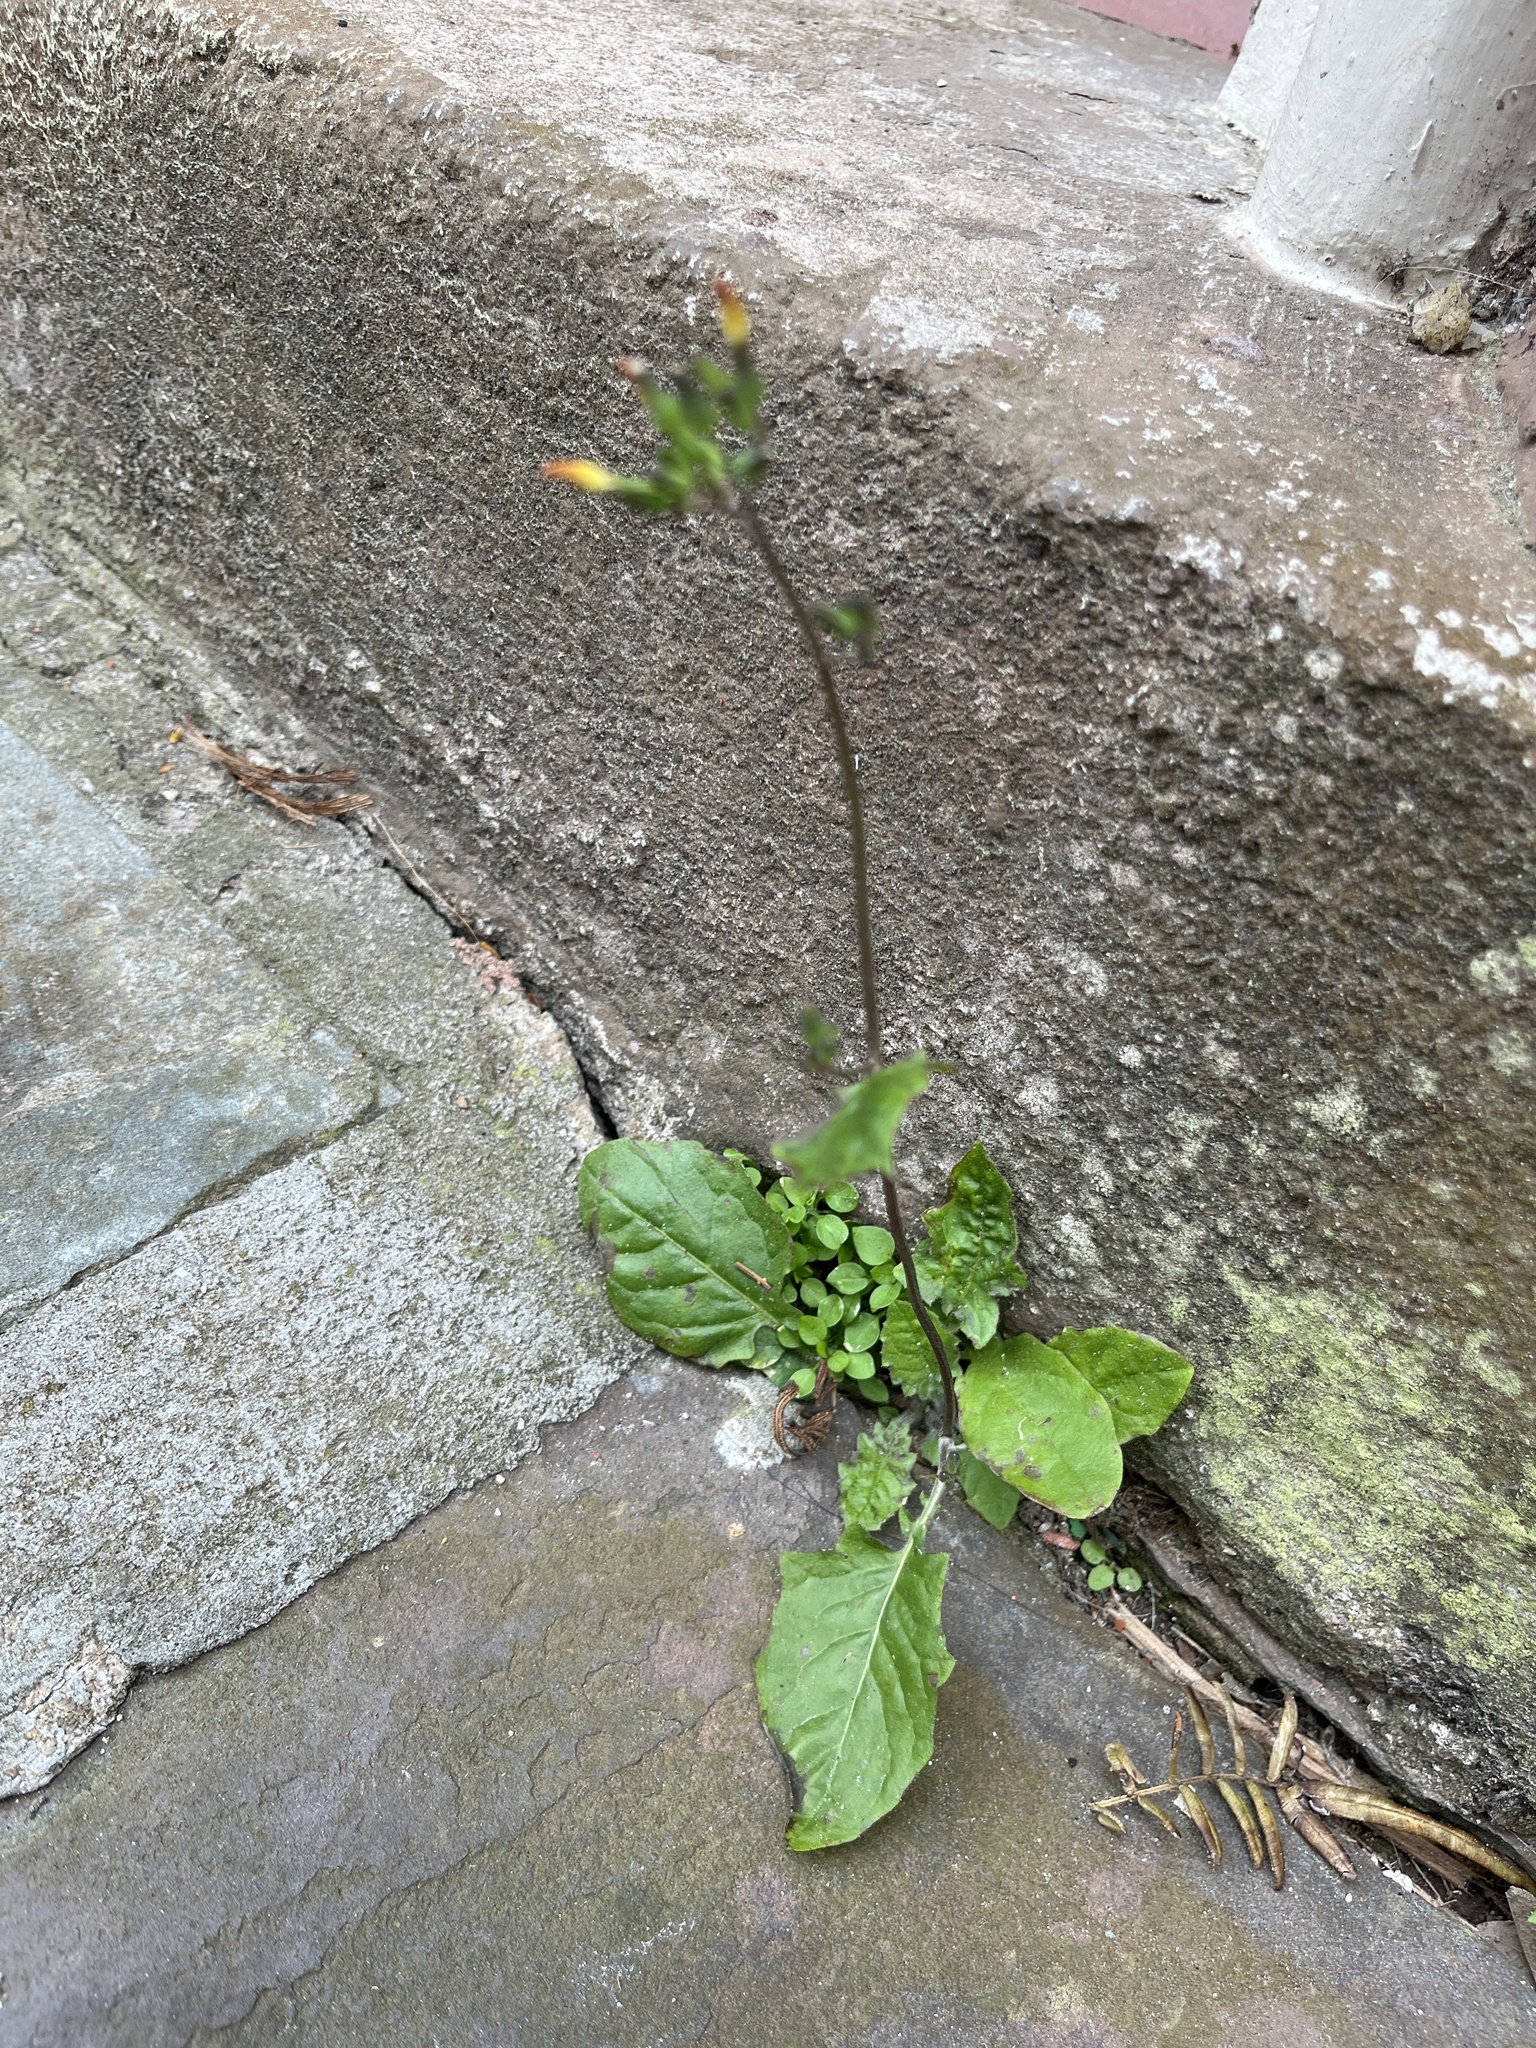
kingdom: Plantae
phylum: Tracheophyta
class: Magnoliopsida
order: Asterales
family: Asteraceae
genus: Youngia
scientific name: Youngia japonica
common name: Oriental false hawksbeard
